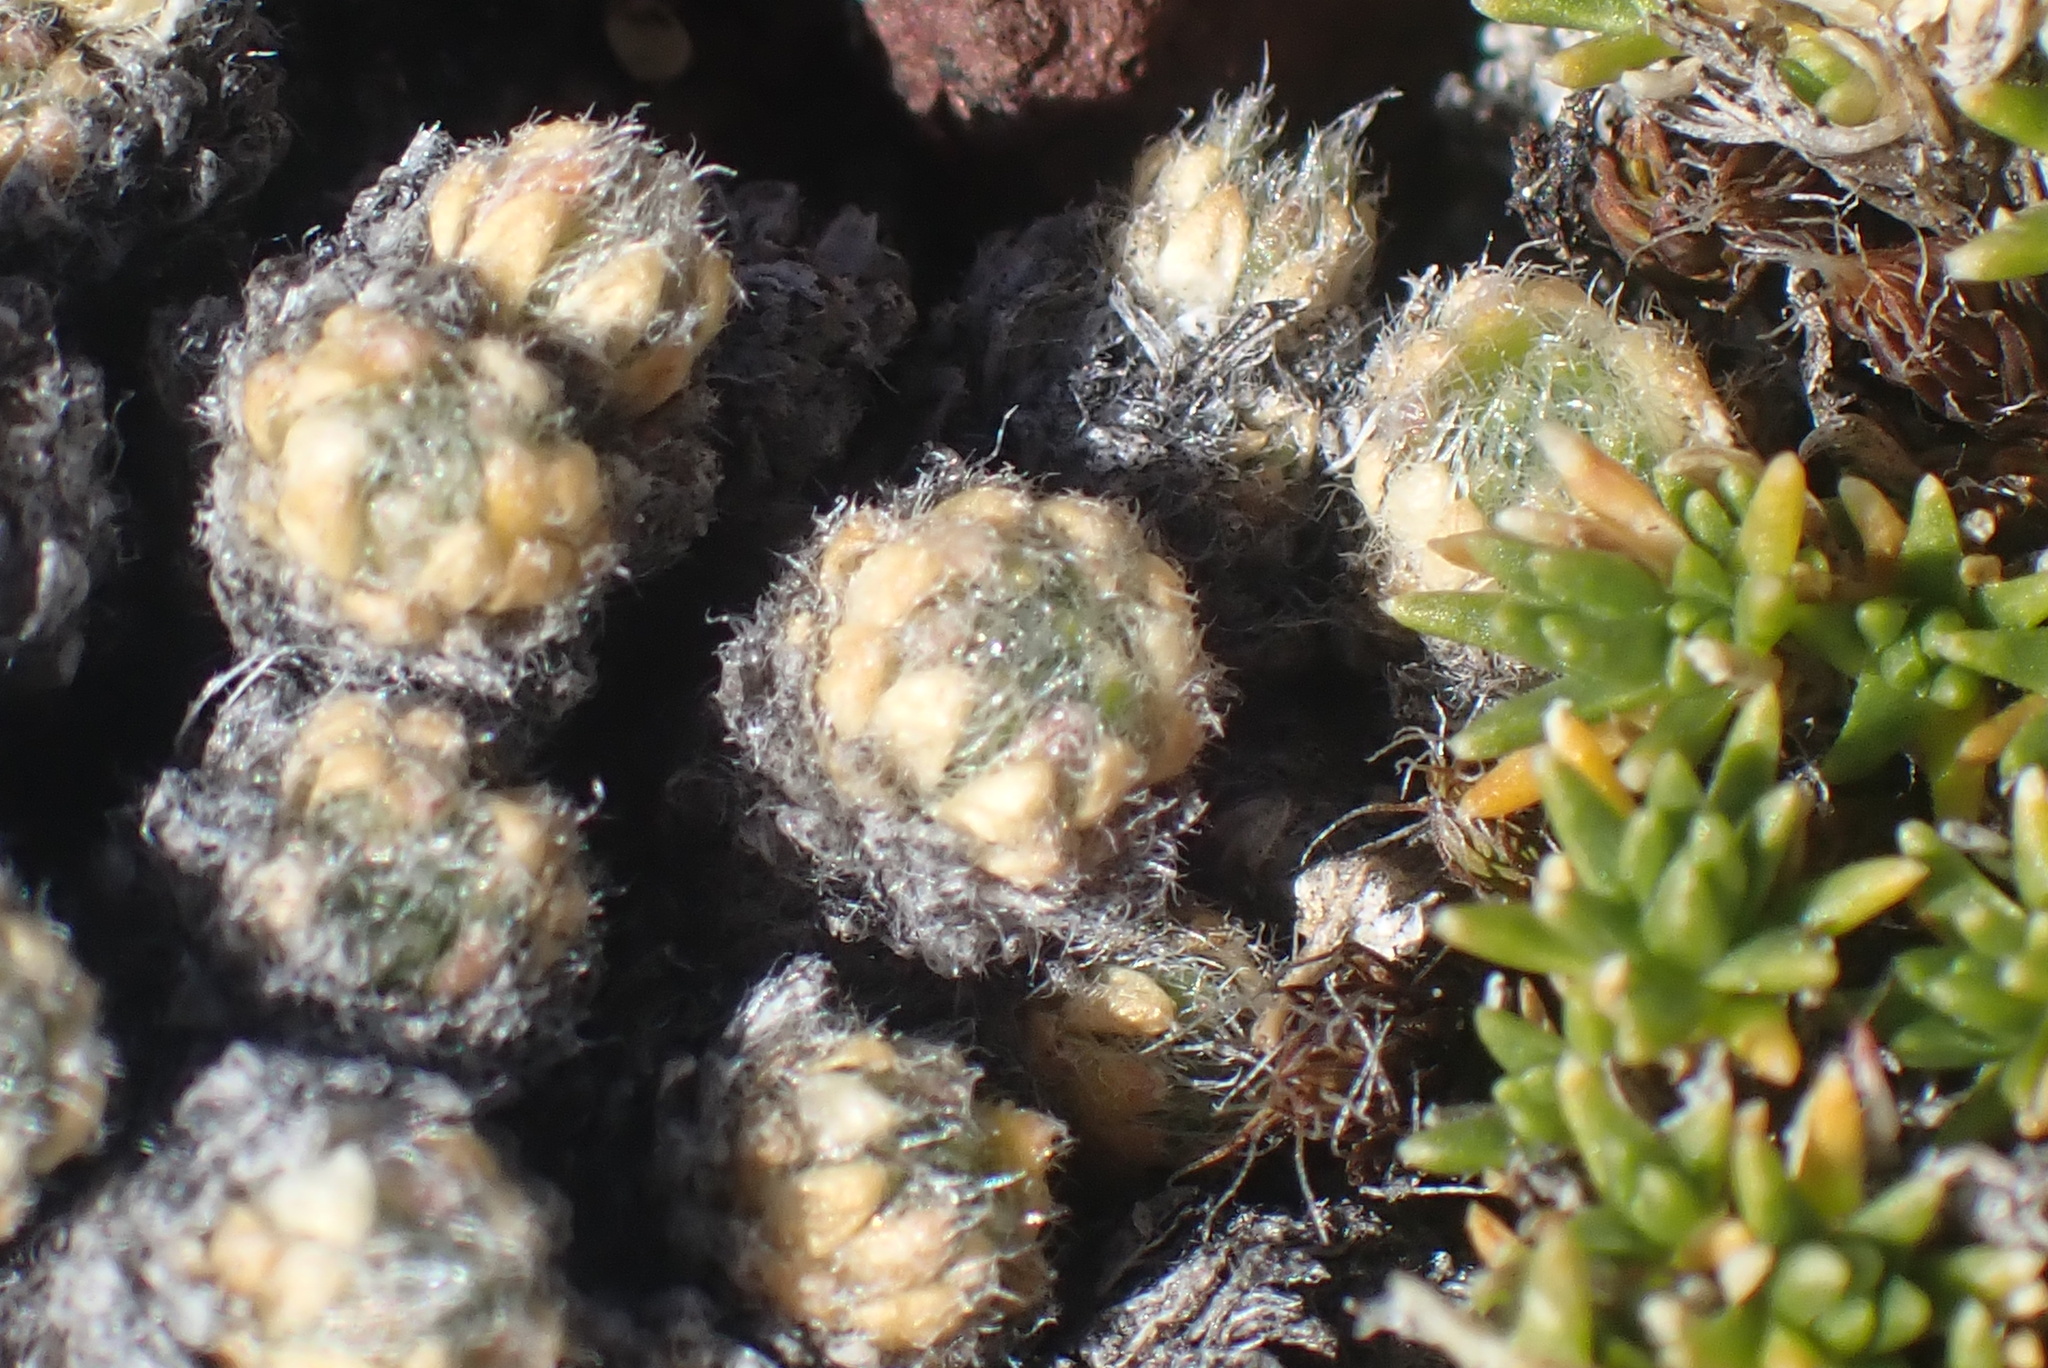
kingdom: Plantae
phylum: Tracheophyta
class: Magnoliopsida
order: Brassicales
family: Brassicaceae
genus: Draba
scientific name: Draba novolympica
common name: Olympic mountains draba
